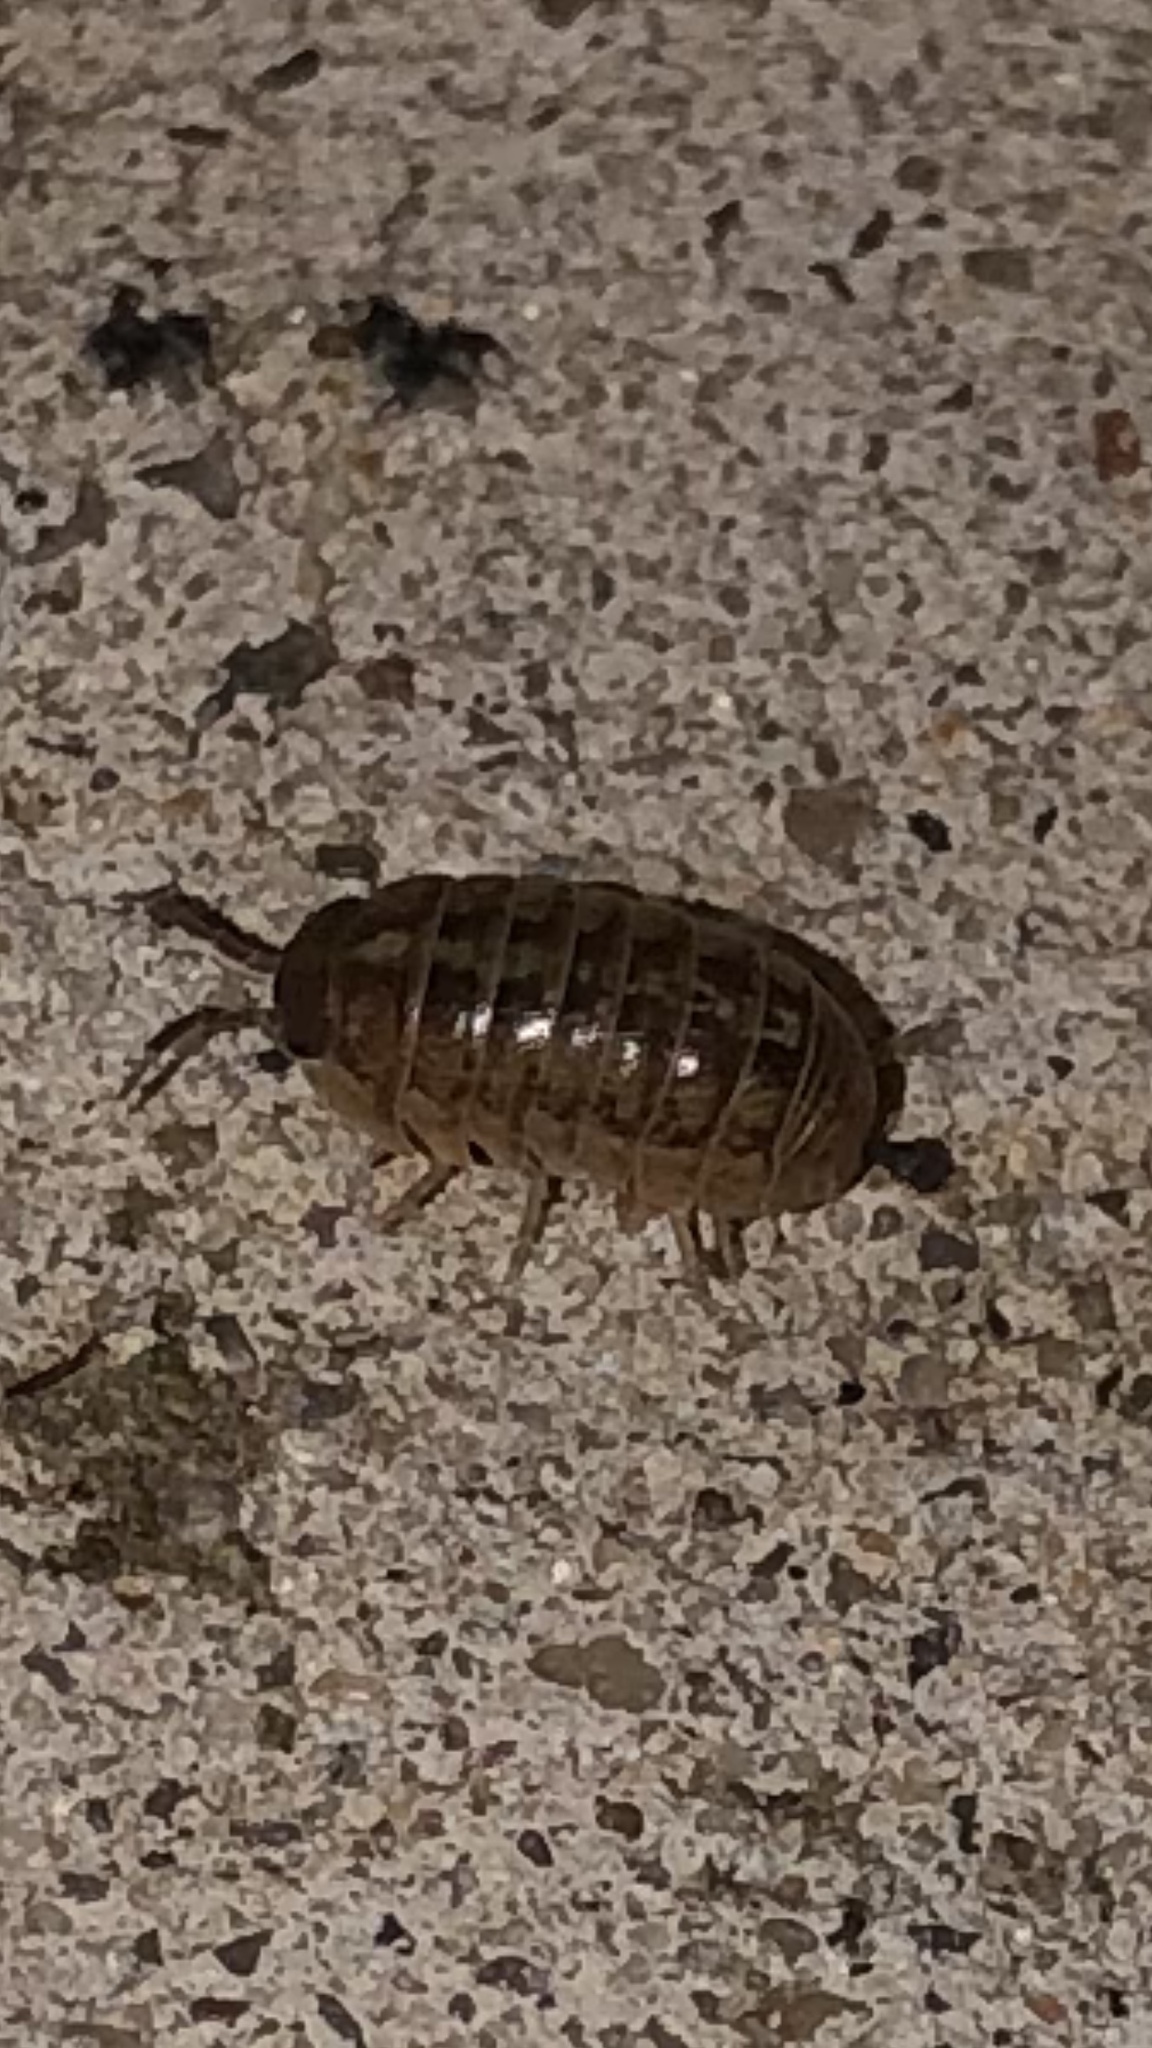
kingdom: Animalia
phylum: Arthropoda
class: Malacostraca
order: Isopoda
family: Armadillidiidae
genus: Armadillidium
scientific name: Armadillidium vulgare
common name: Common pill woodlouse
